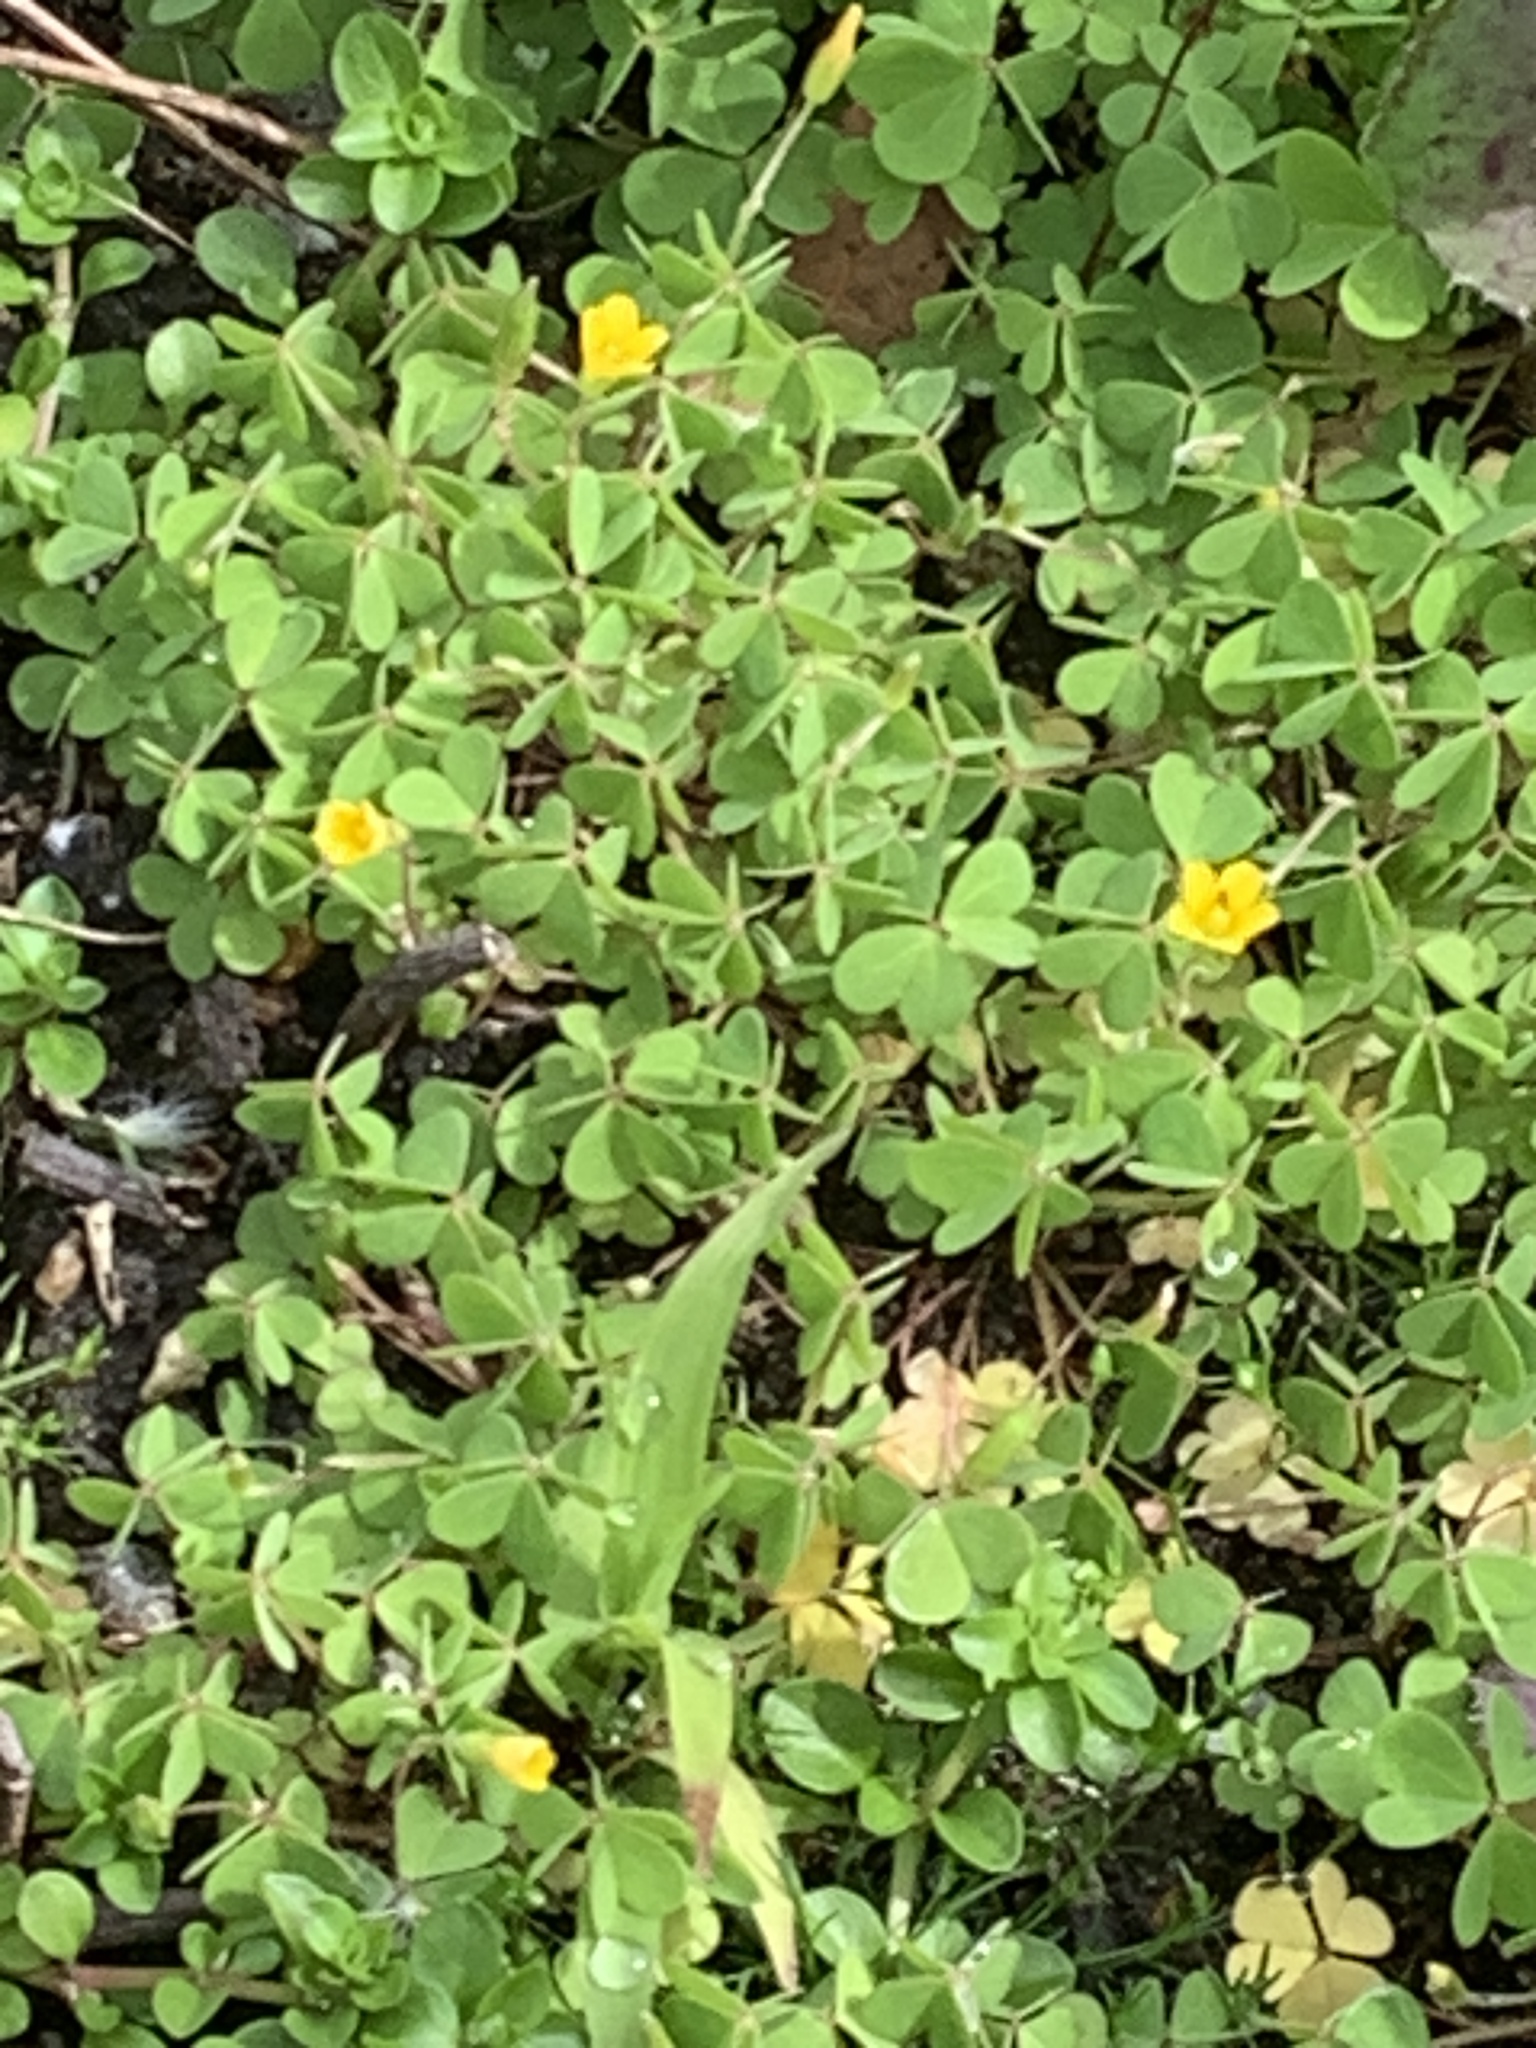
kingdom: Plantae
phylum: Tracheophyta
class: Magnoliopsida
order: Oxalidales
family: Oxalidaceae
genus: Oxalis
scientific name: Oxalis corniculata
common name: Procumbent yellow-sorrel
